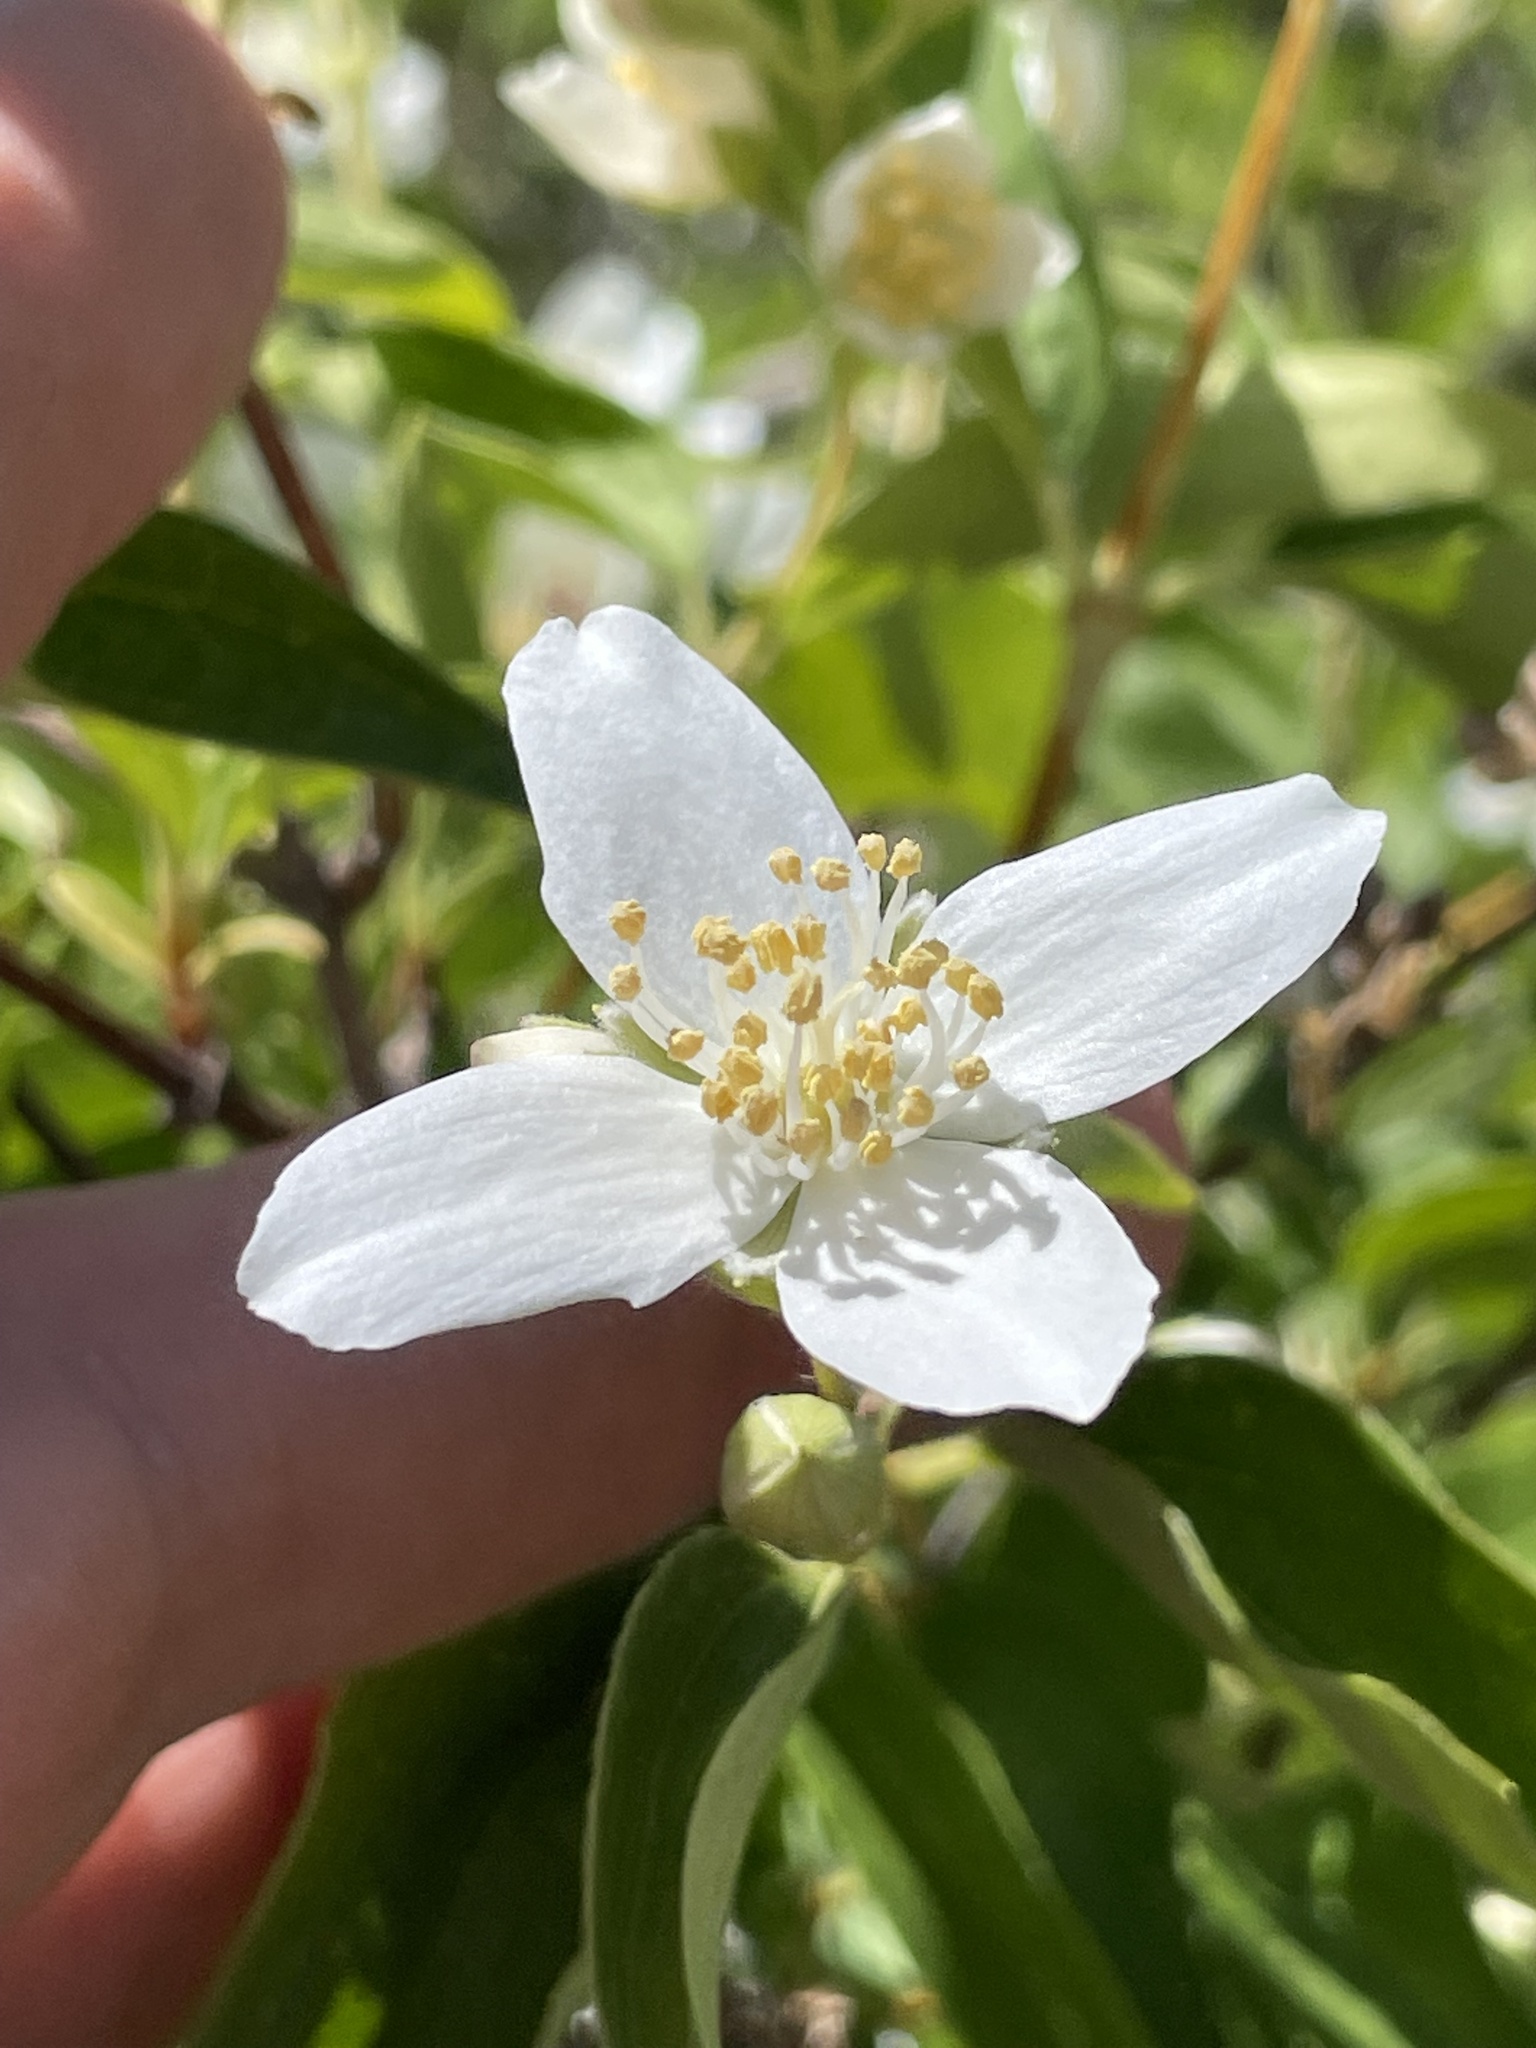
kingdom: Plantae
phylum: Tracheophyta
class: Magnoliopsida
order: Cornales
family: Hydrangeaceae
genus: Philadelphus
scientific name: Philadelphus lewisii
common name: Lewis's mock orange
